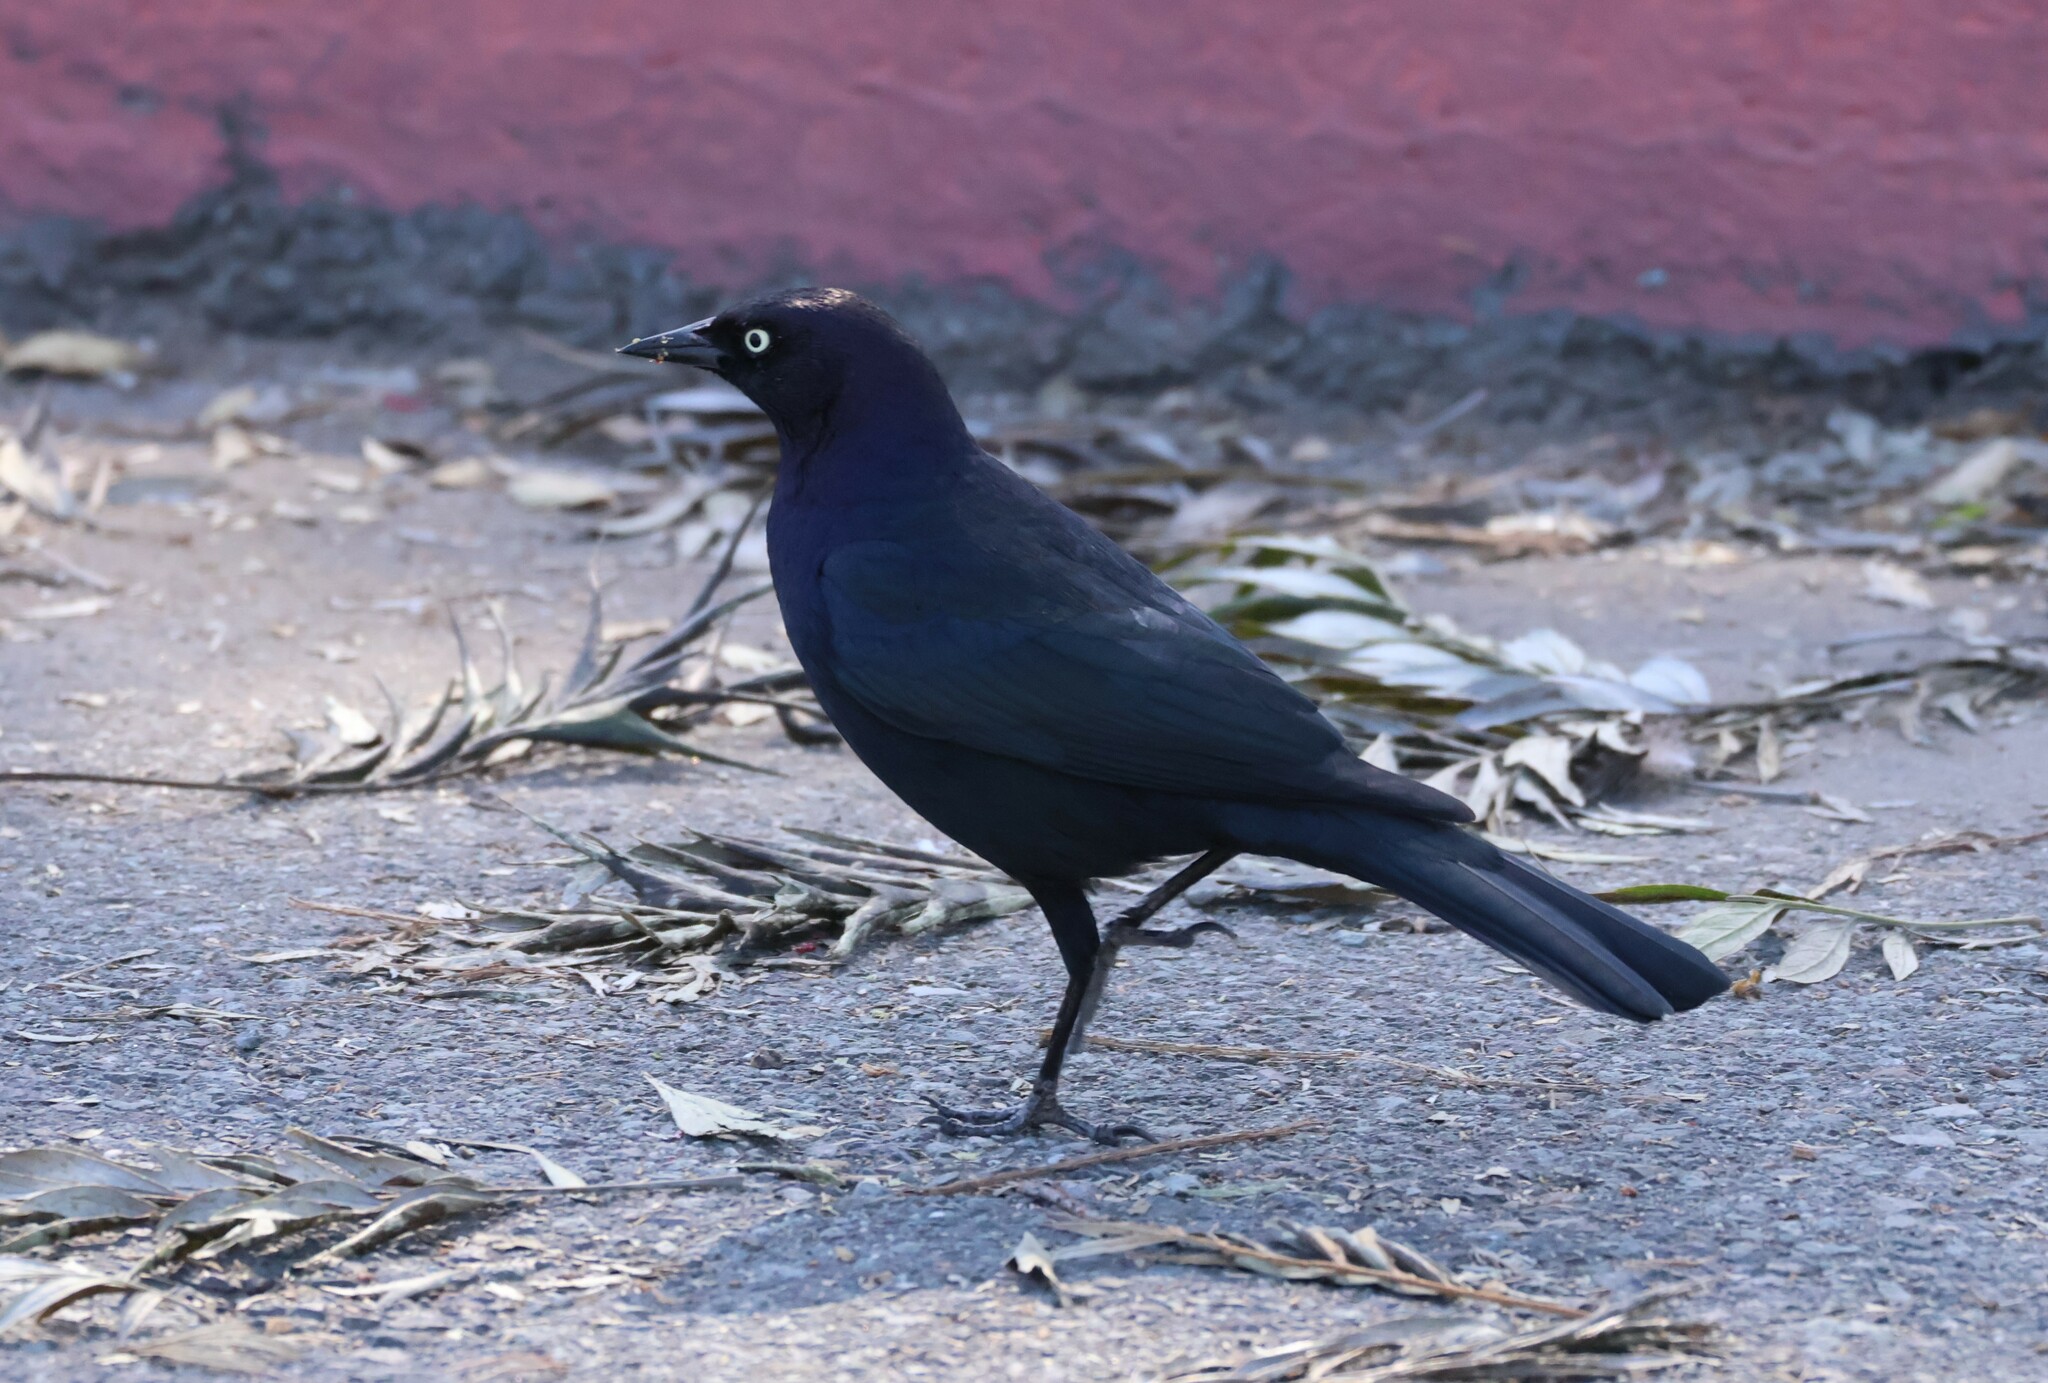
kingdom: Animalia
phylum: Chordata
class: Aves
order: Passeriformes
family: Icteridae
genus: Euphagus
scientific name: Euphagus cyanocephalus
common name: Brewer's blackbird
